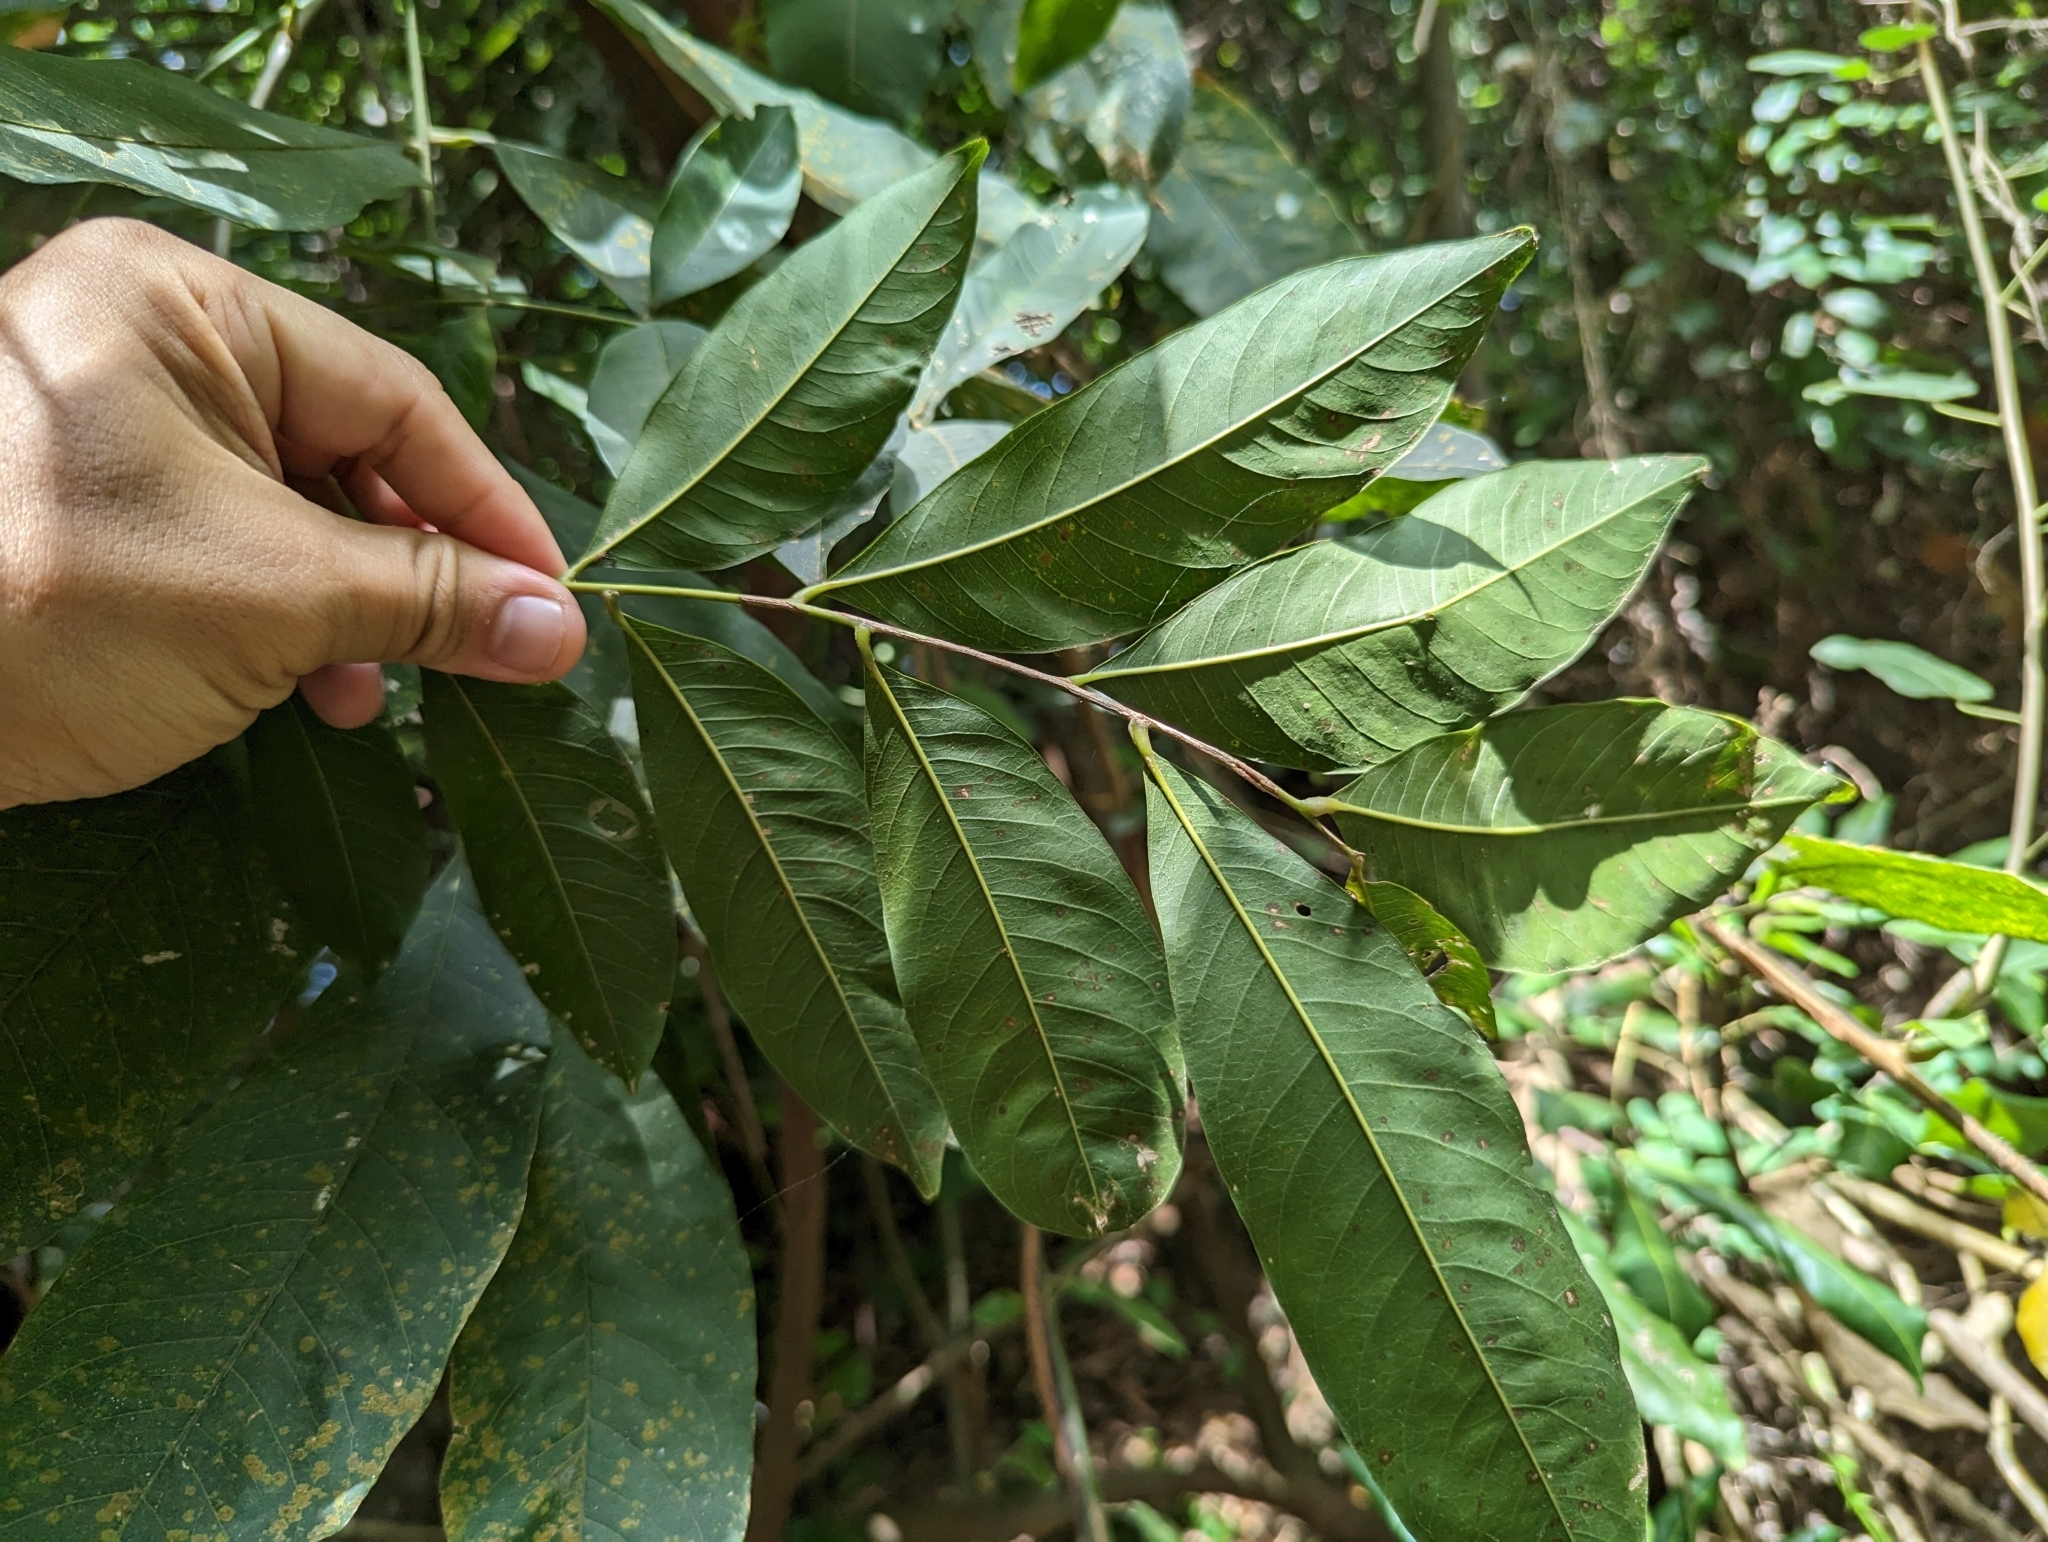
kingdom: Plantae
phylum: Tracheophyta
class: Magnoliopsida
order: Sapindales
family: Sapindaceae
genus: Sapindus
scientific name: Sapindus mukorossi
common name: Chinese soapberry
